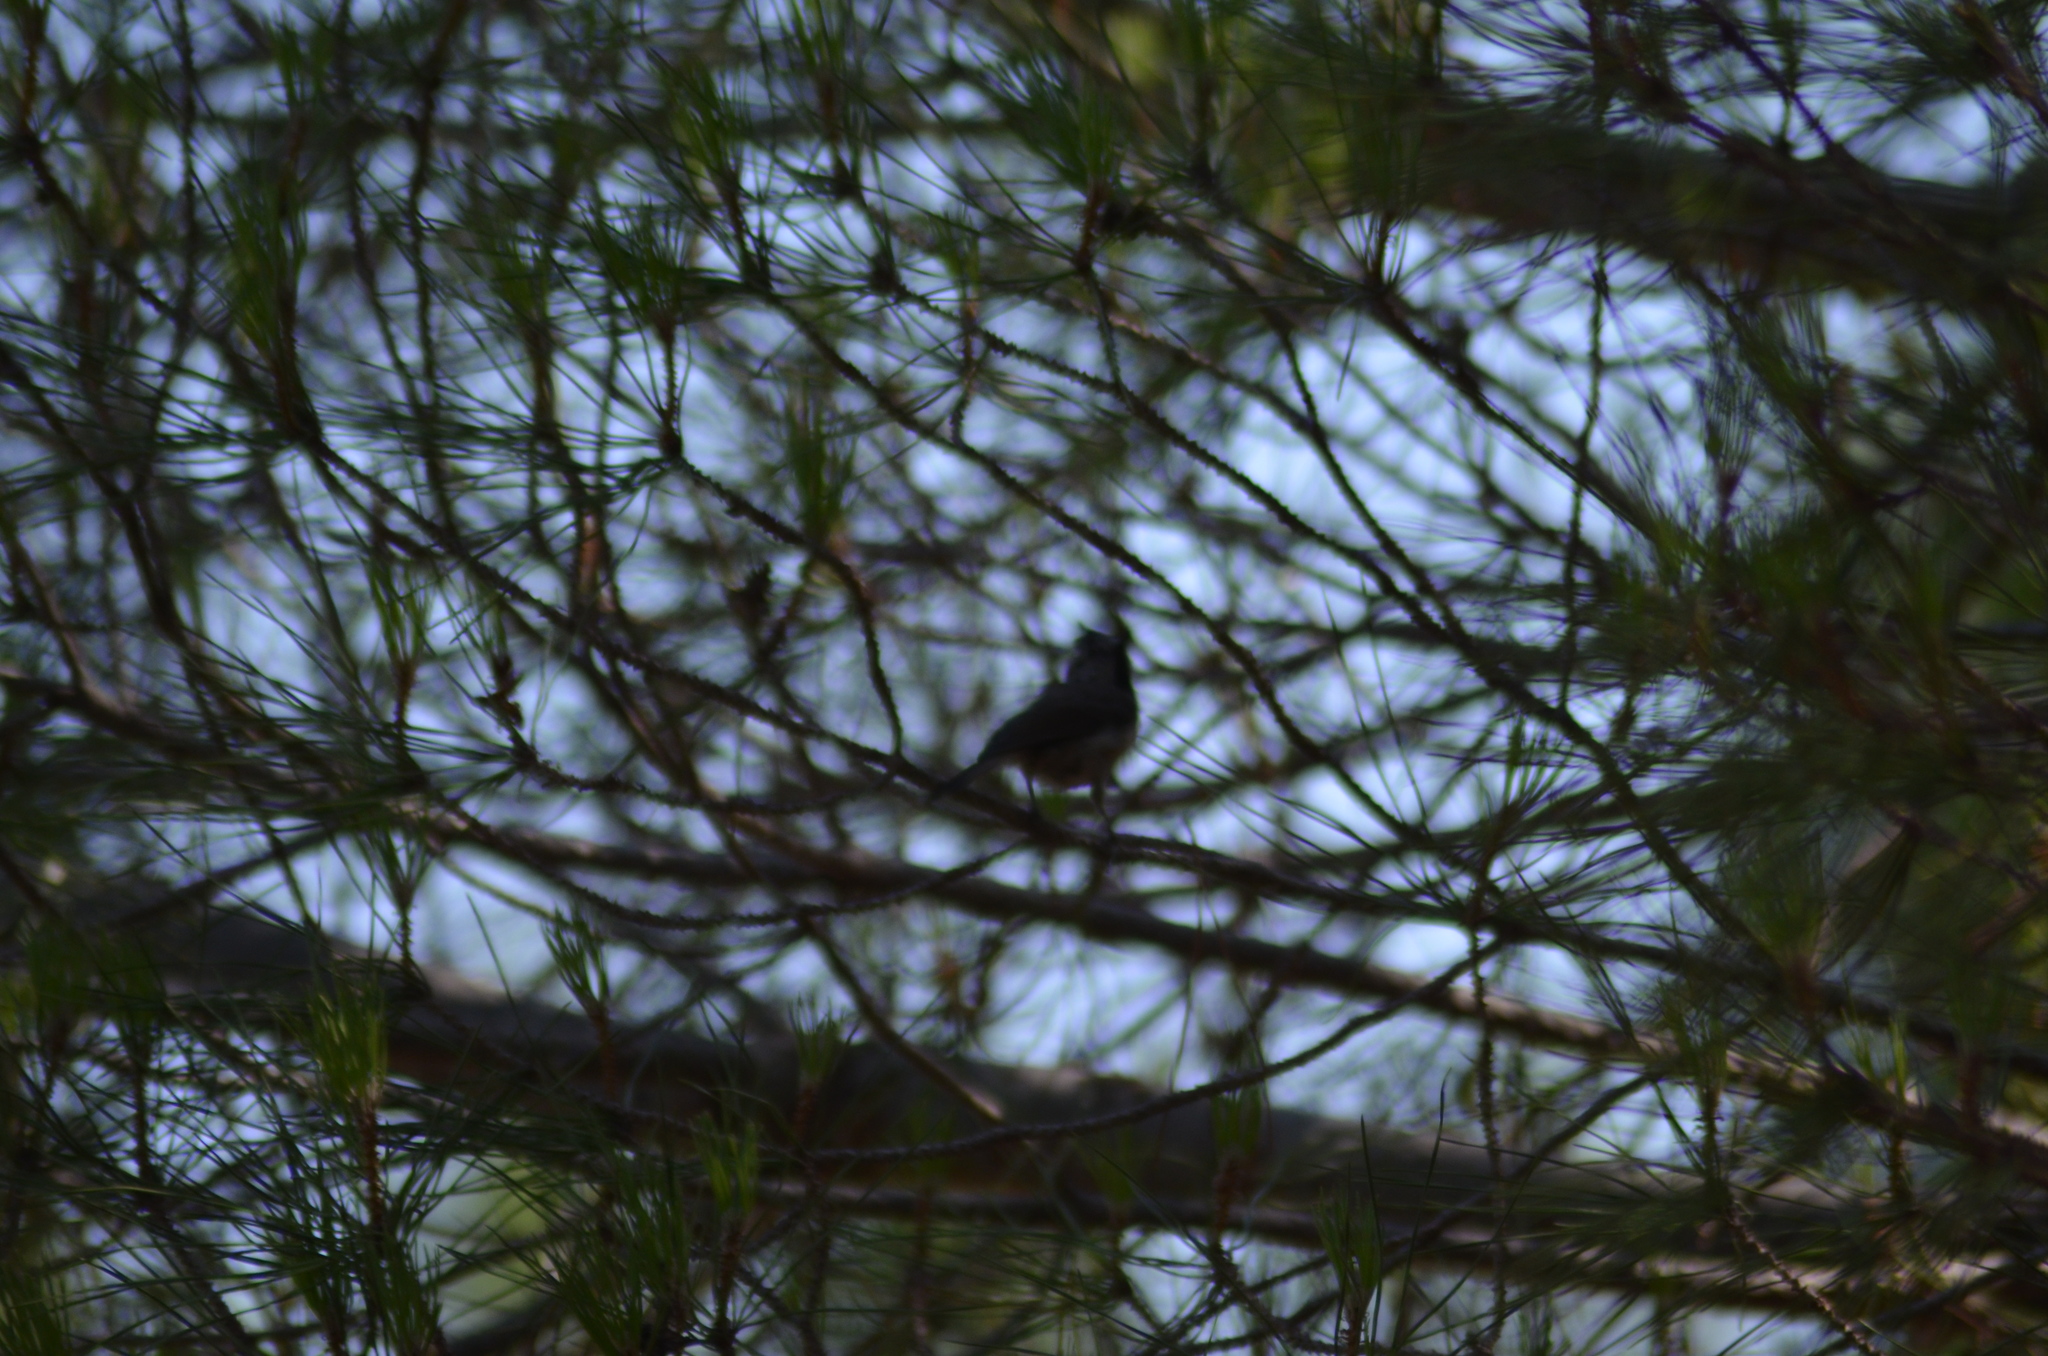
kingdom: Animalia
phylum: Chordata
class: Aves
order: Passeriformes
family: Paridae
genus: Lophophanes
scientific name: Lophophanes cristatus
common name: European crested tit
